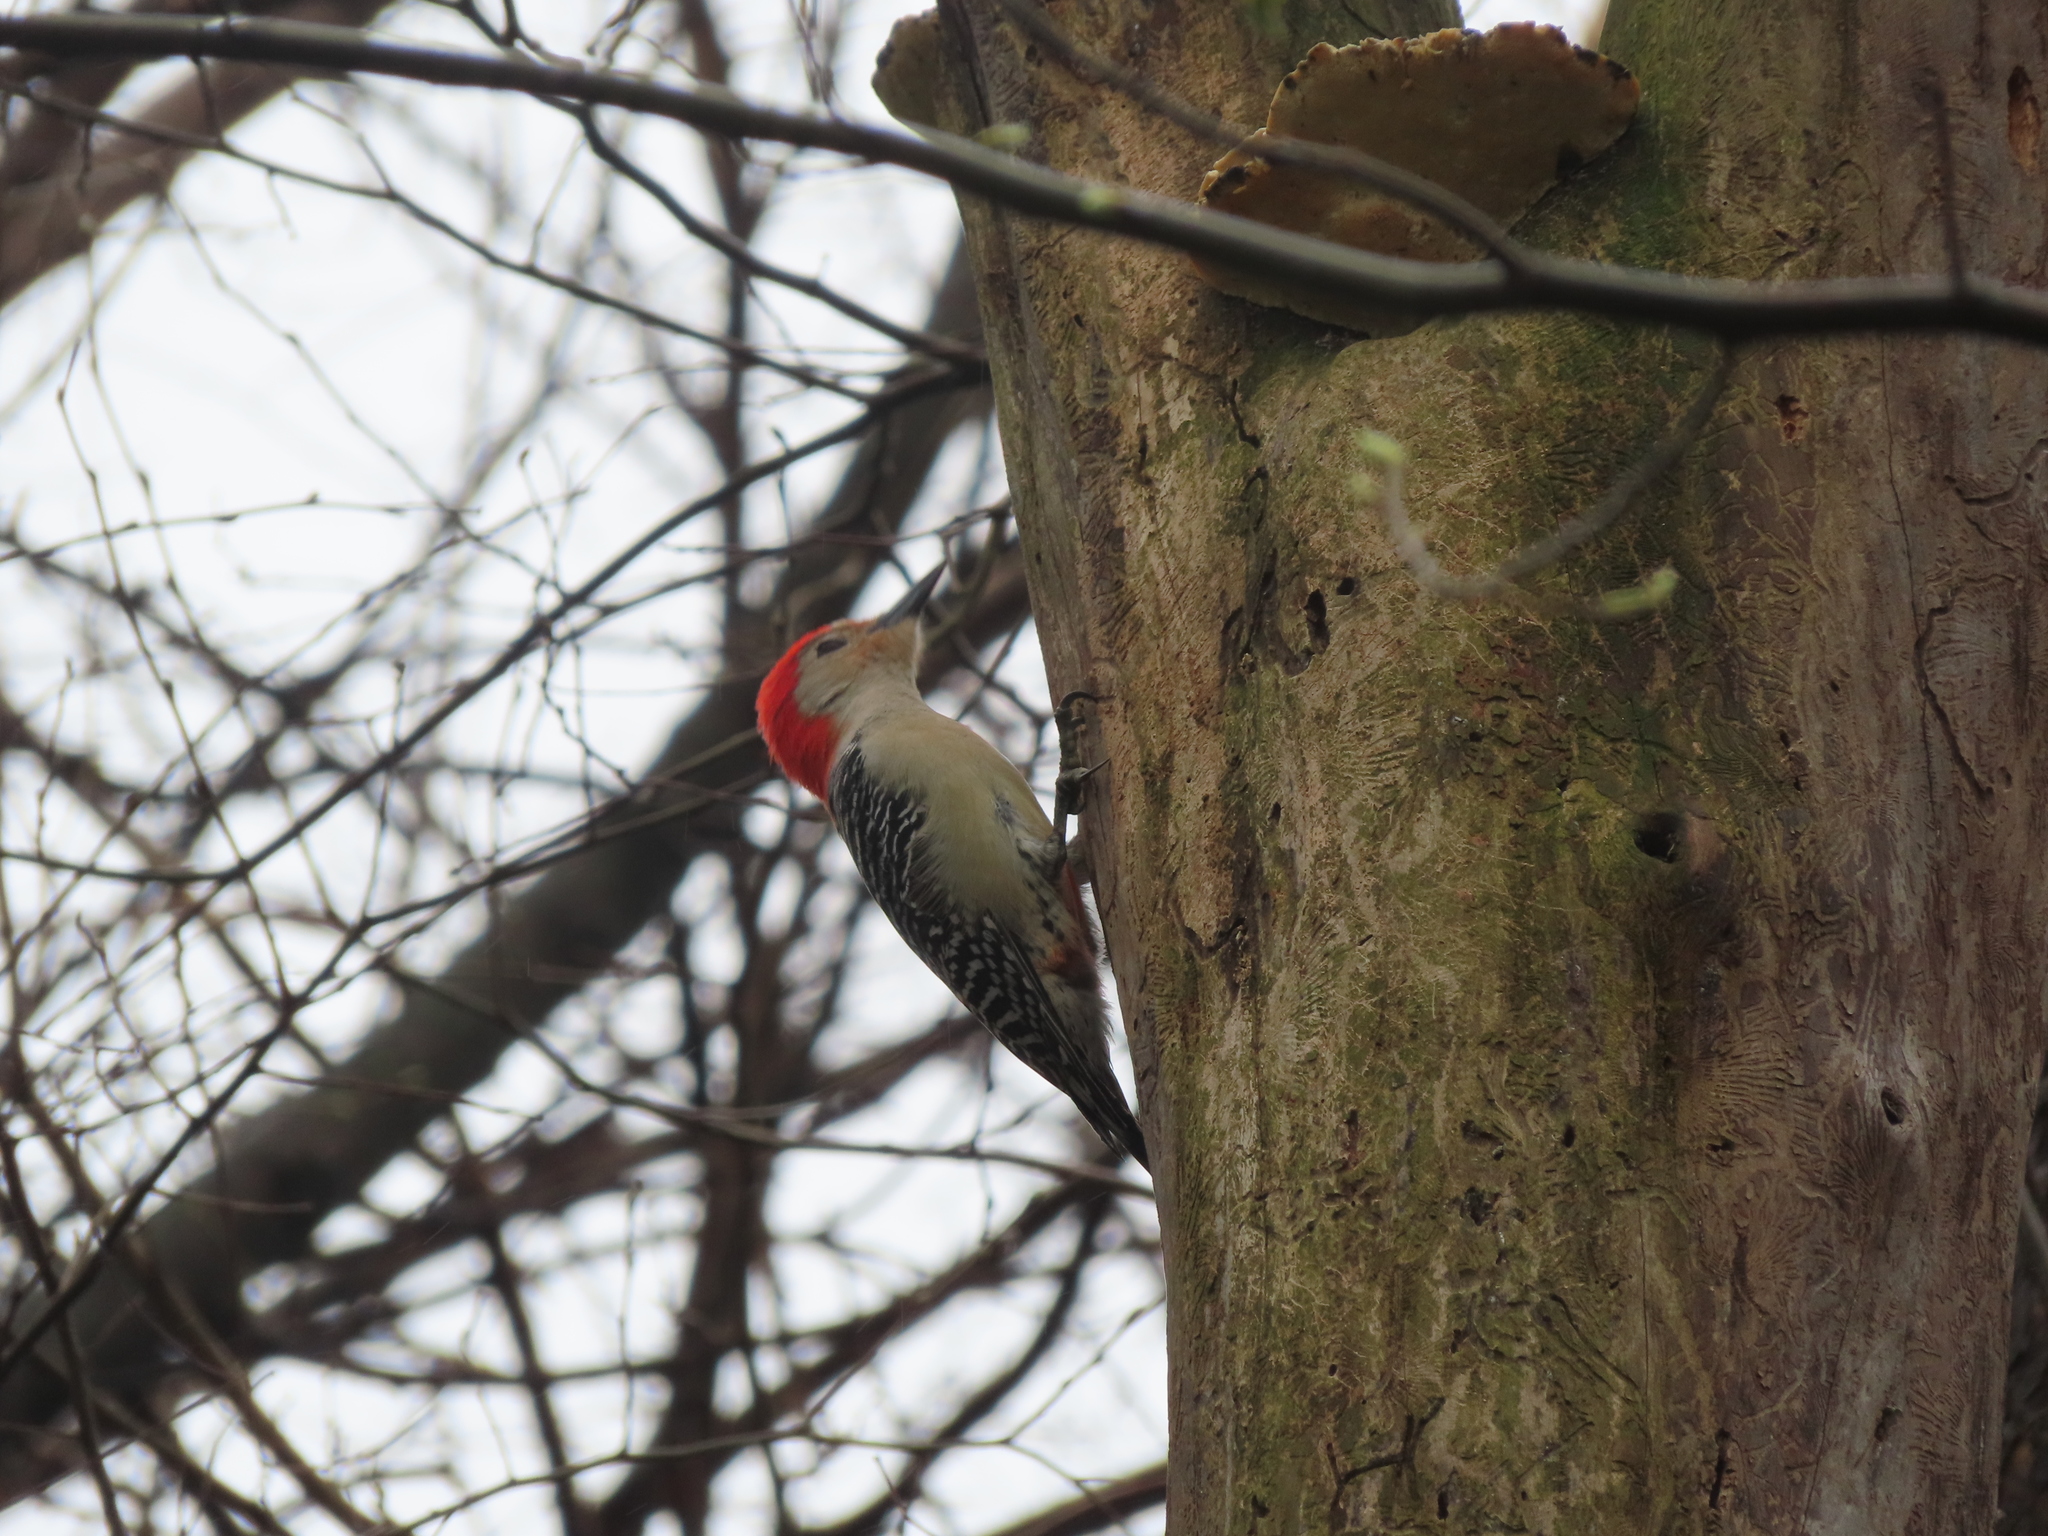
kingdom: Animalia
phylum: Chordata
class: Aves
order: Piciformes
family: Picidae
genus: Melanerpes
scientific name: Melanerpes carolinus
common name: Red-bellied woodpecker
